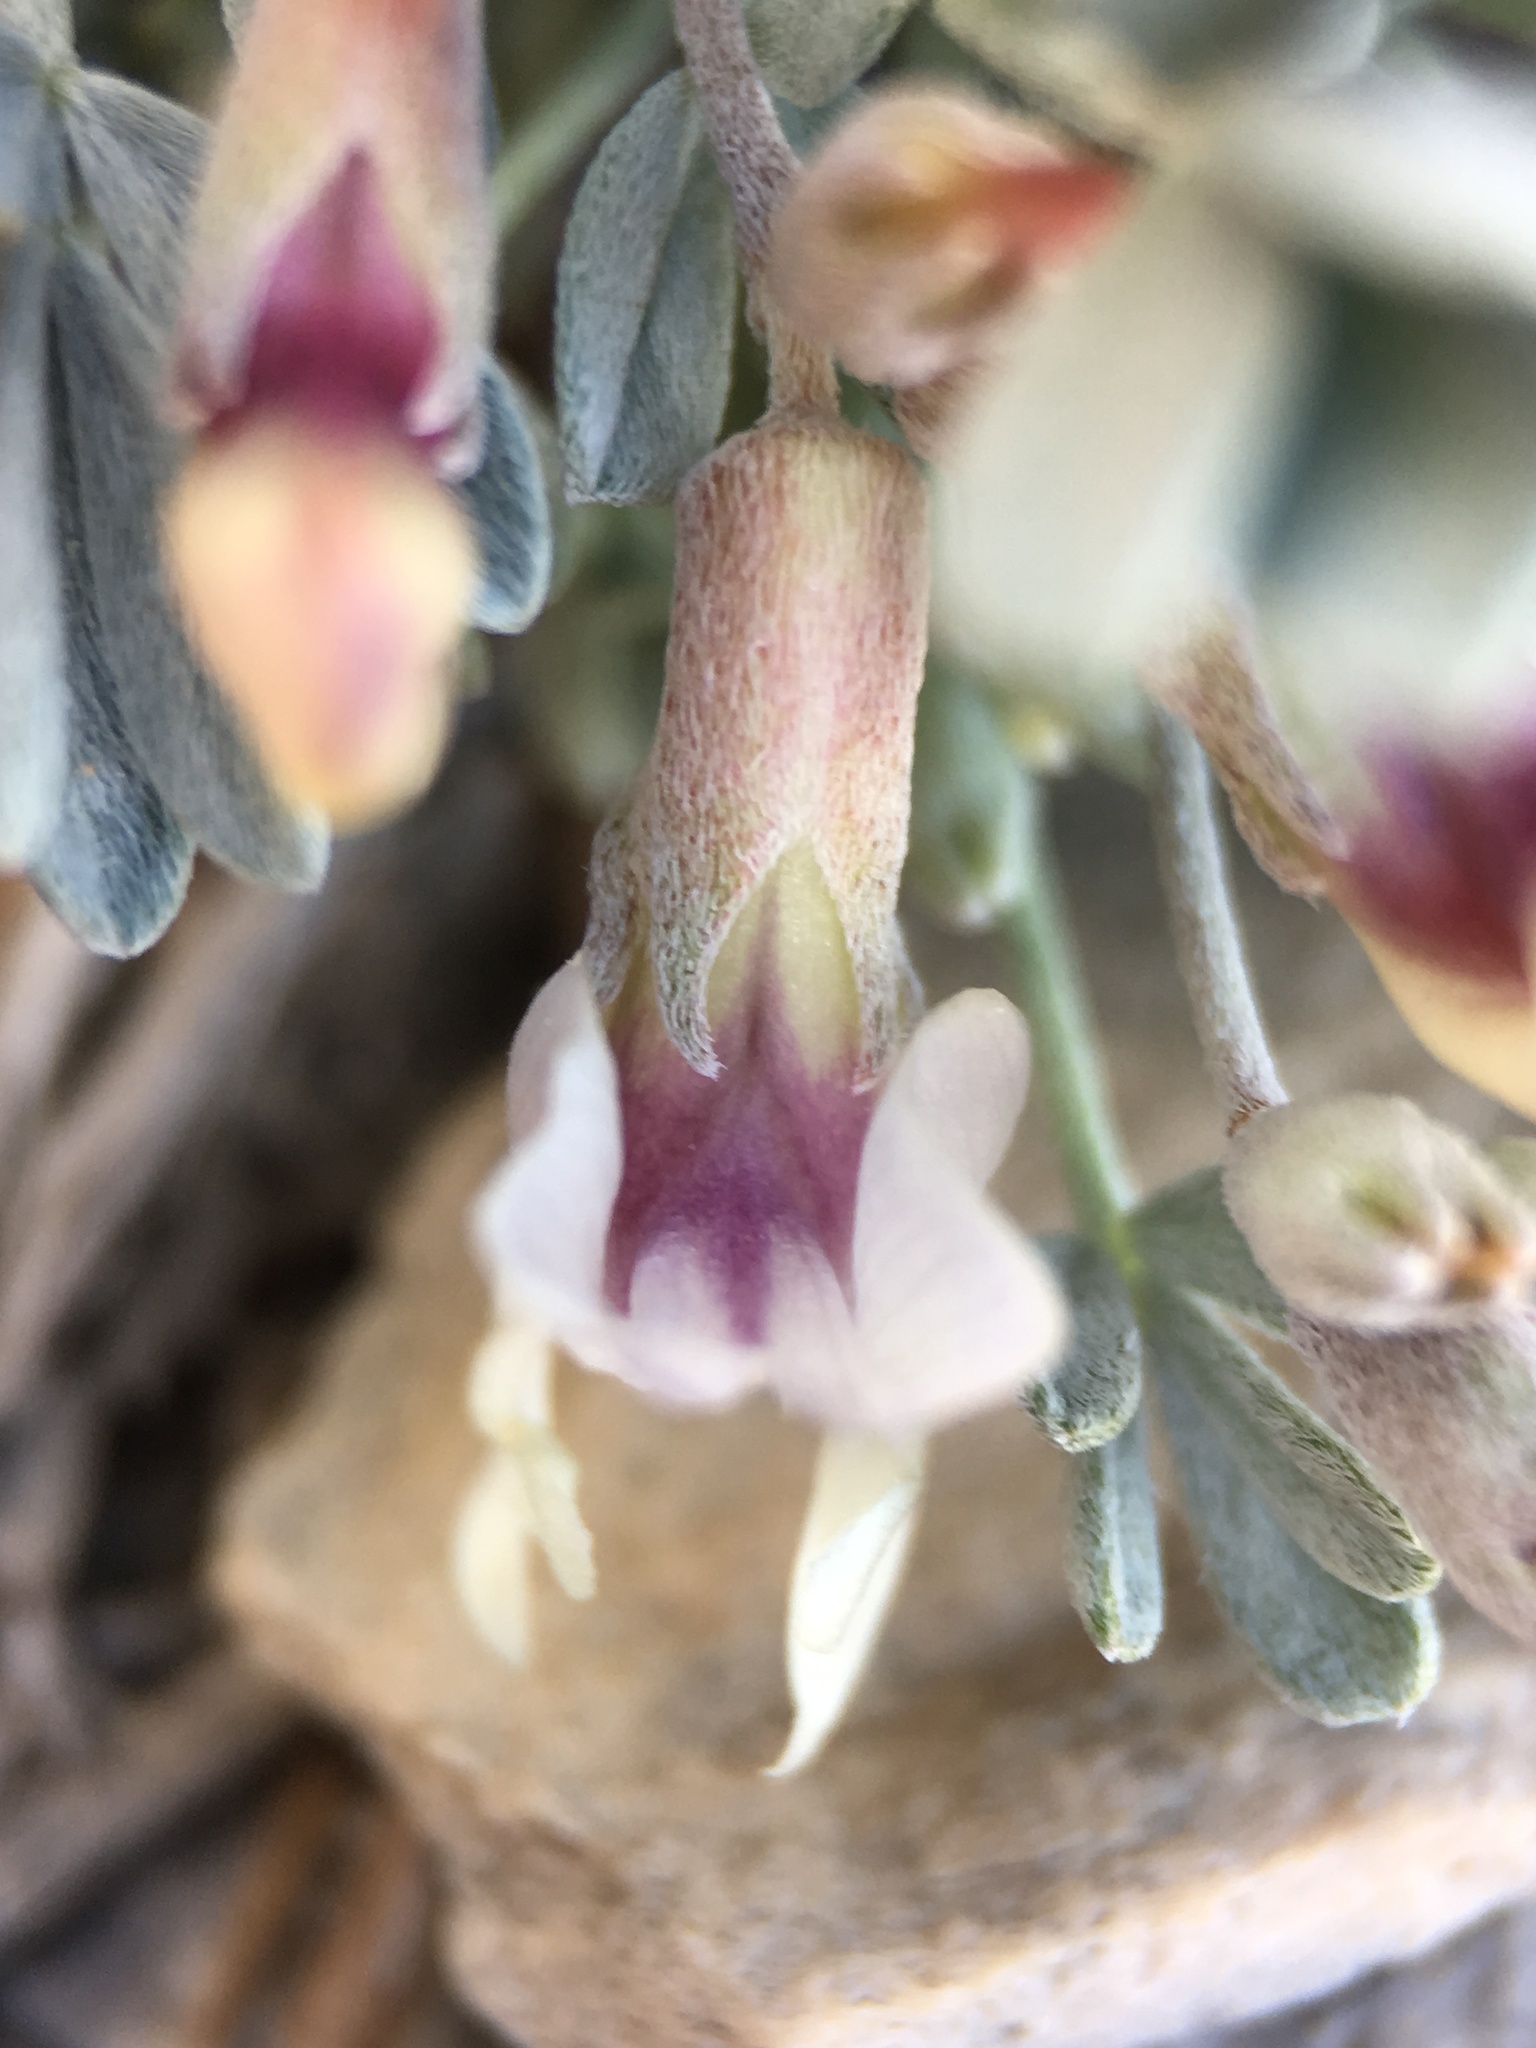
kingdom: Plantae
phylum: Tracheophyta
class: Magnoliopsida
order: Fabales
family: Fabaceae
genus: Astragalus
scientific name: Astragalus calycosus
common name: King's milkvetch
